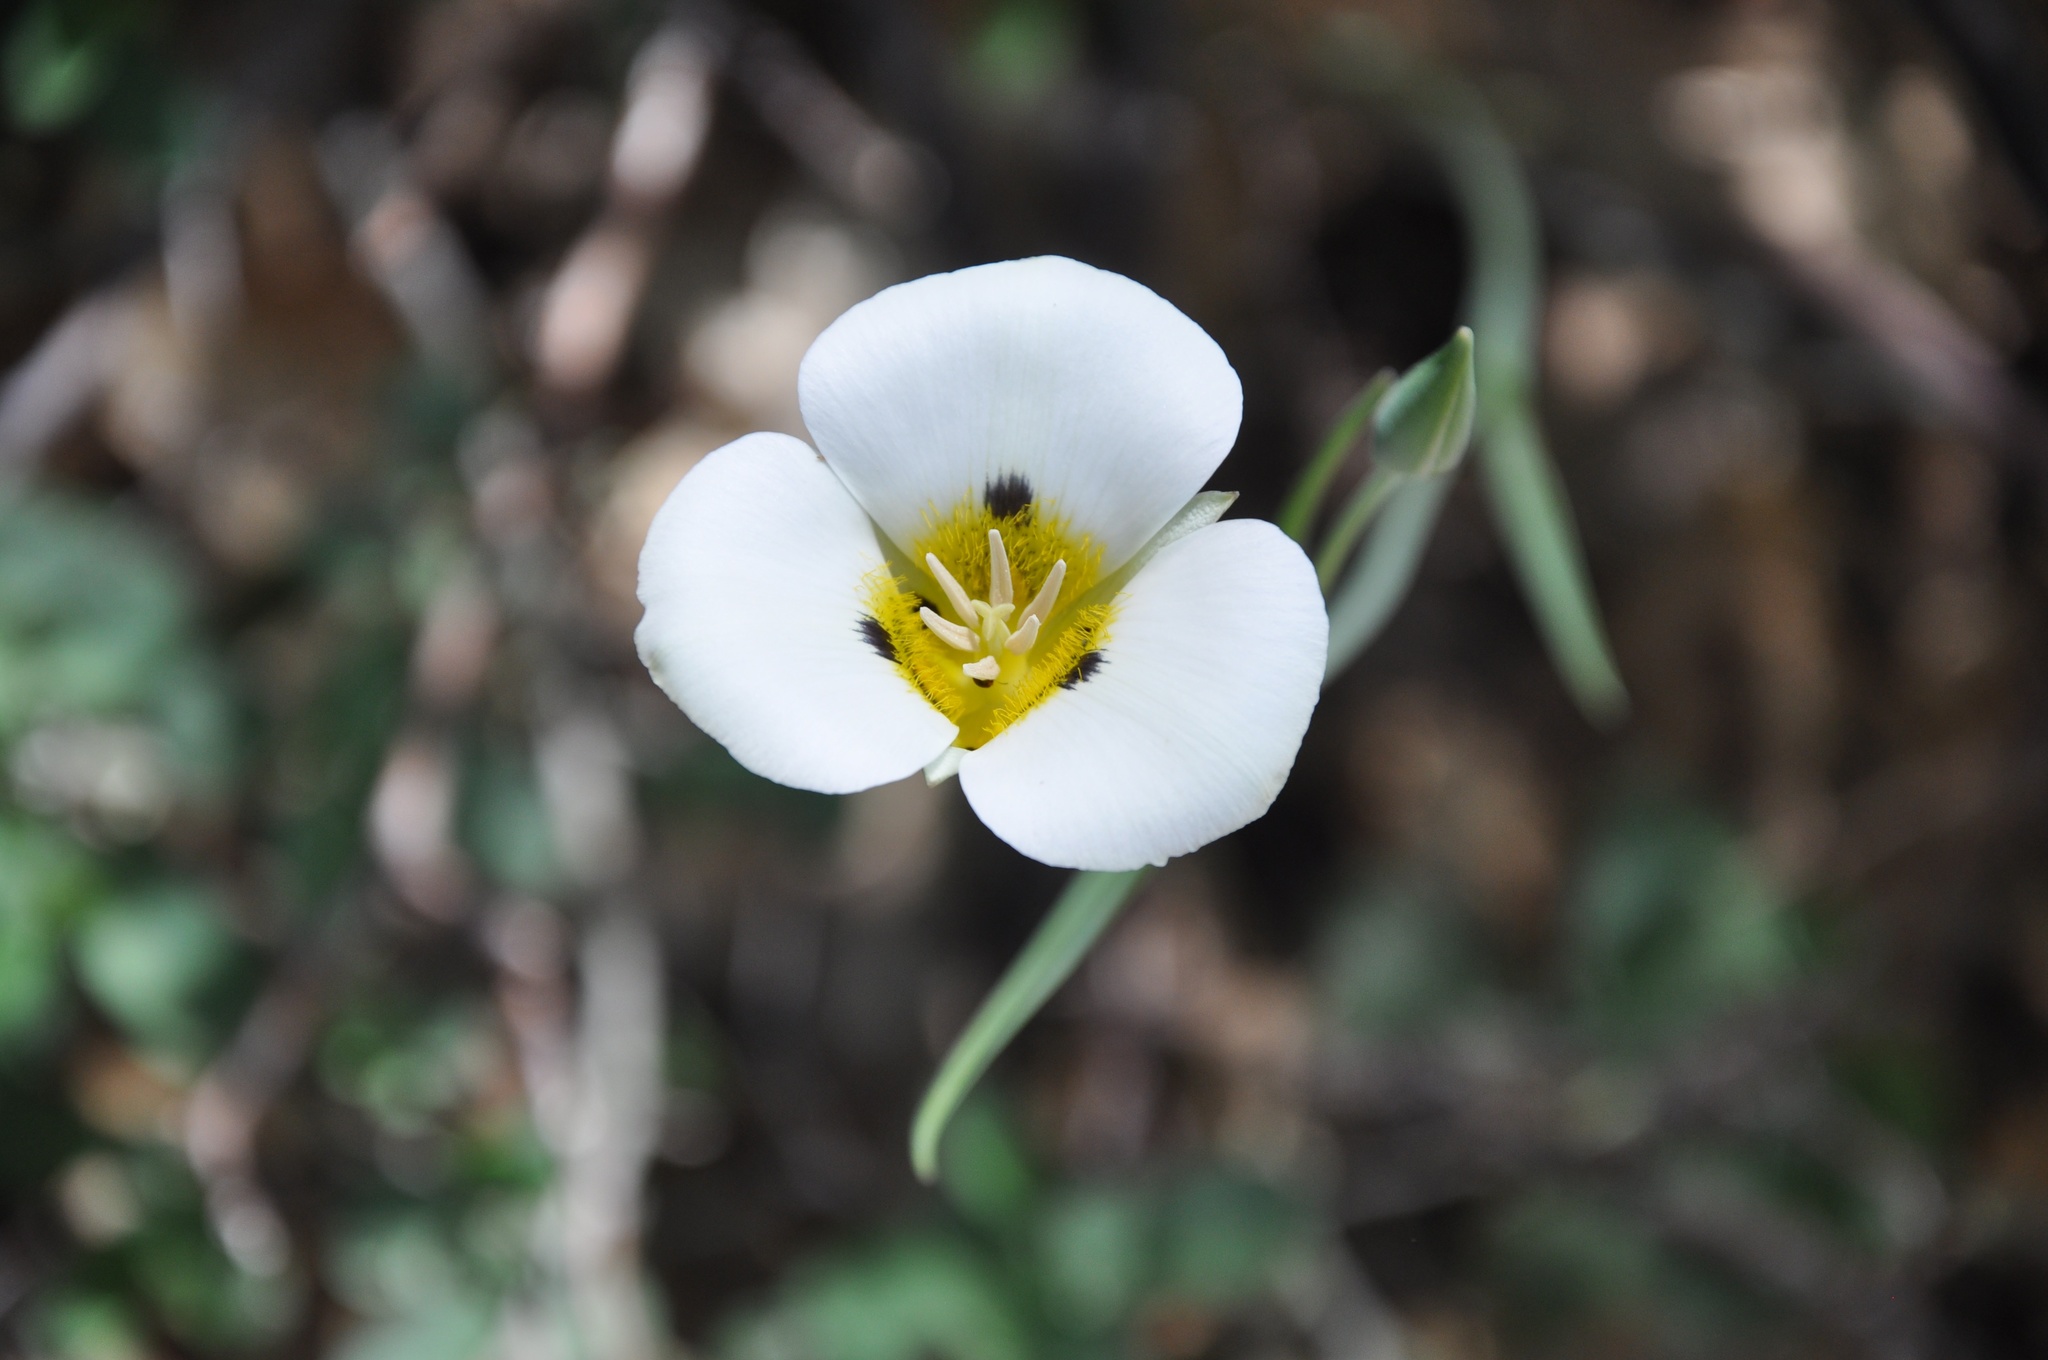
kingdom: Plantae
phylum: Tracheophyta
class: Liliopsida
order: Liliales
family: Liliaceae
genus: Calochortus
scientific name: Calochortus leichtlinii
